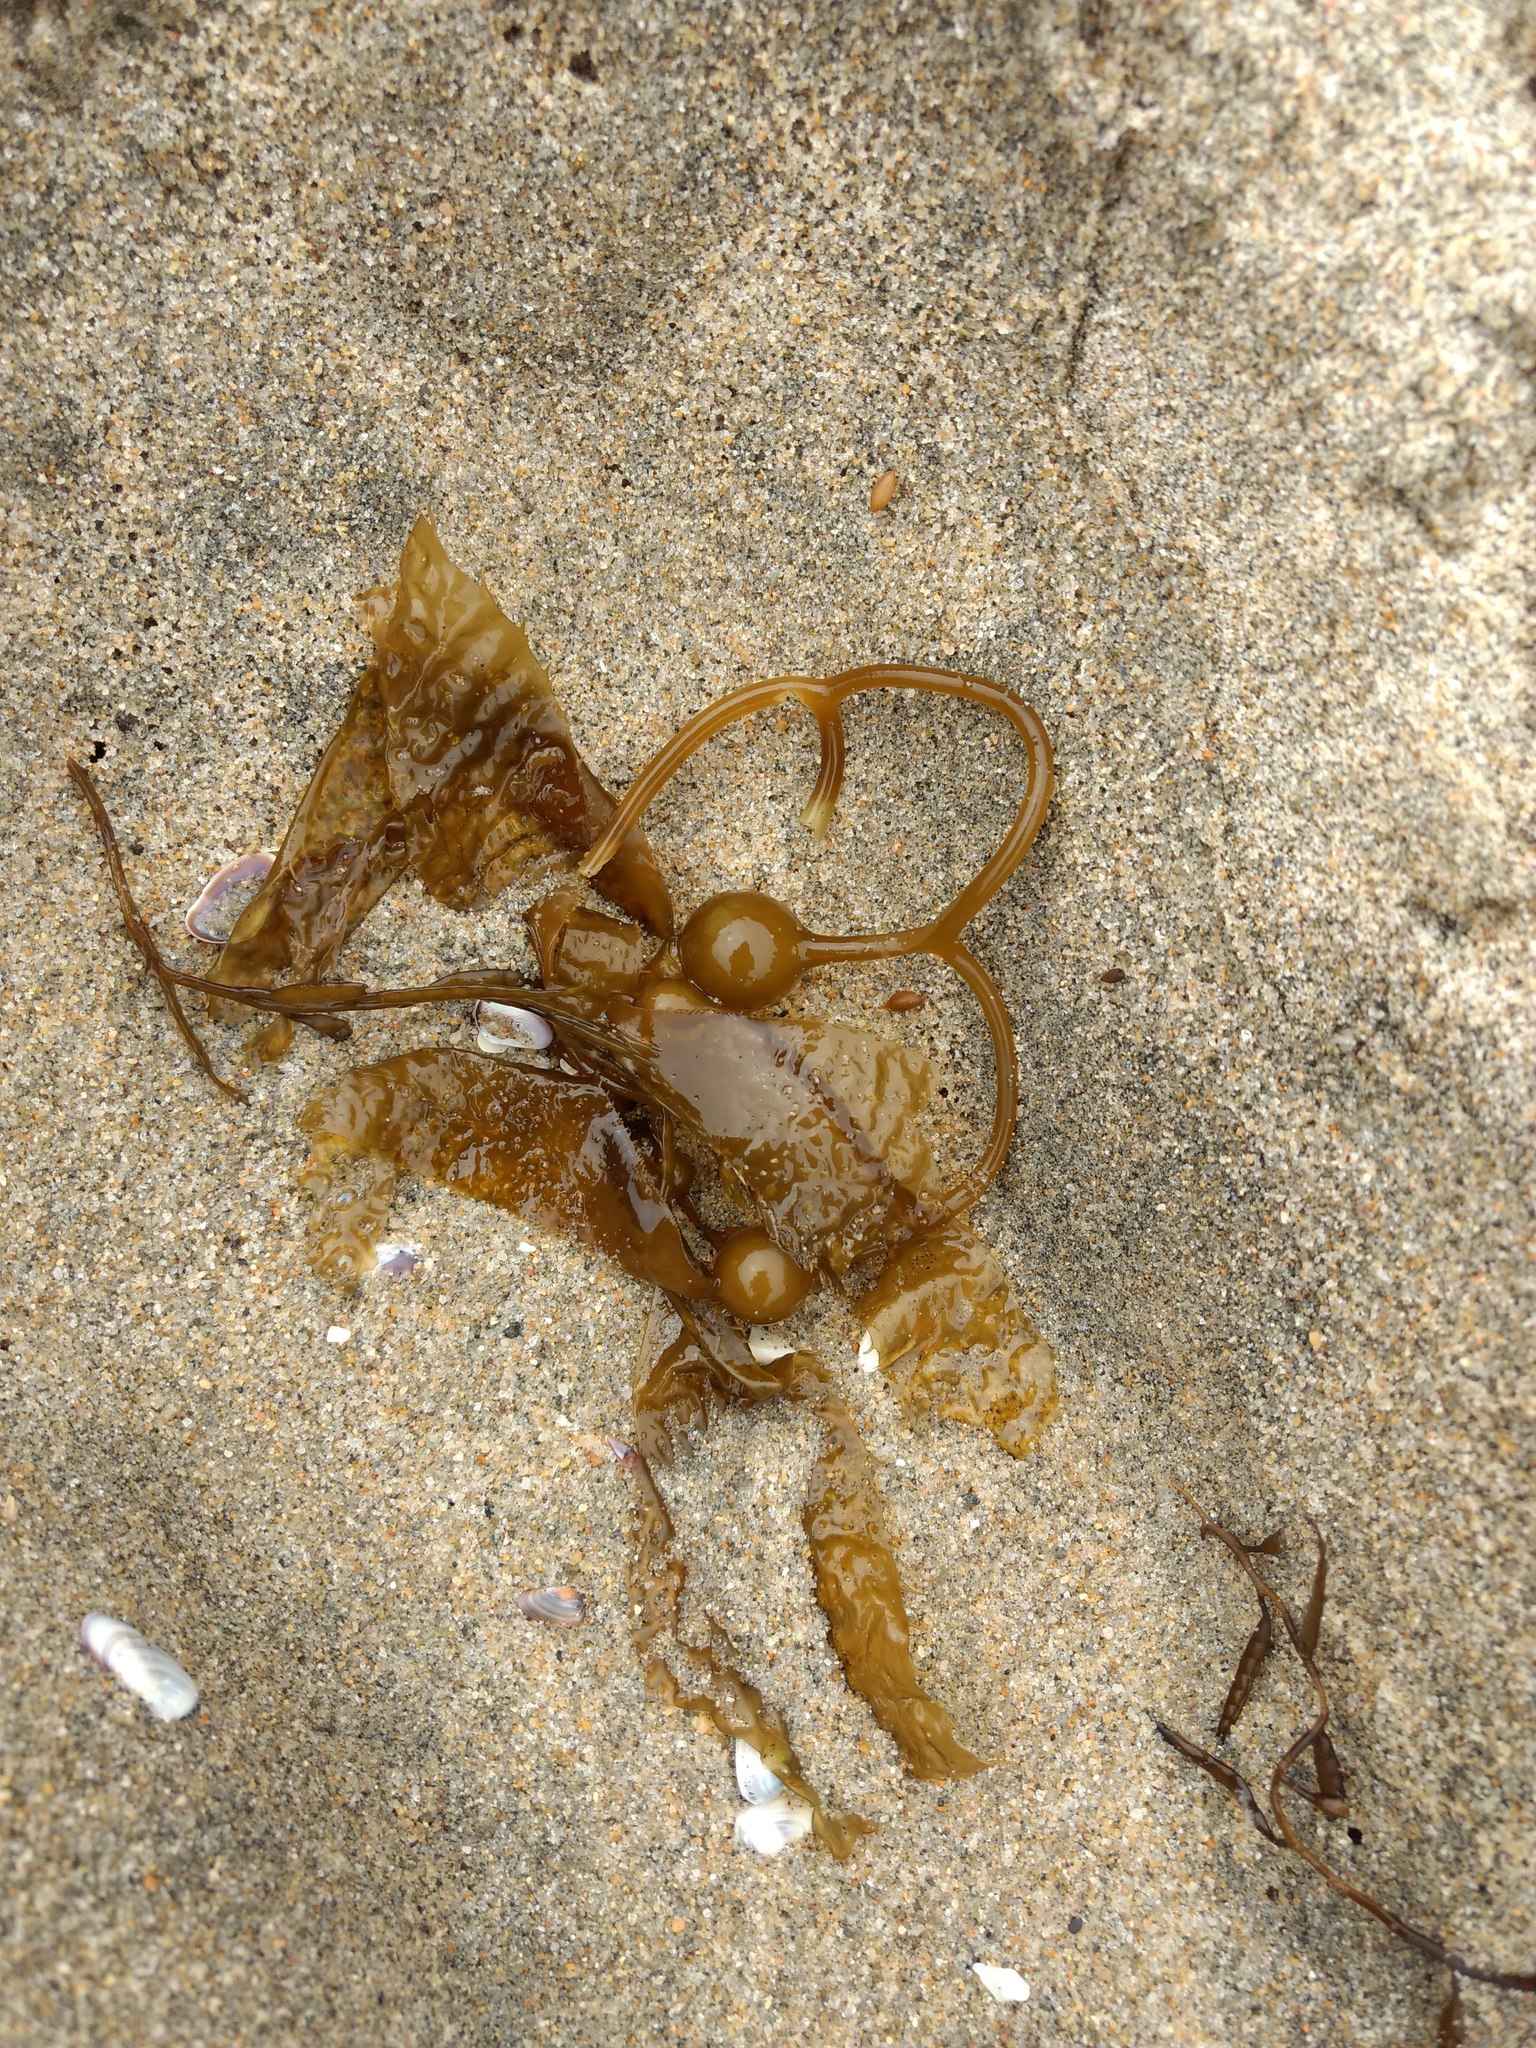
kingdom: Chromista
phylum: Ochrophyta
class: Phaeophyceae
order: Laminariales
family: Laminariaceae
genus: Macrocystis
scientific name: Macrocystis pyrifera
